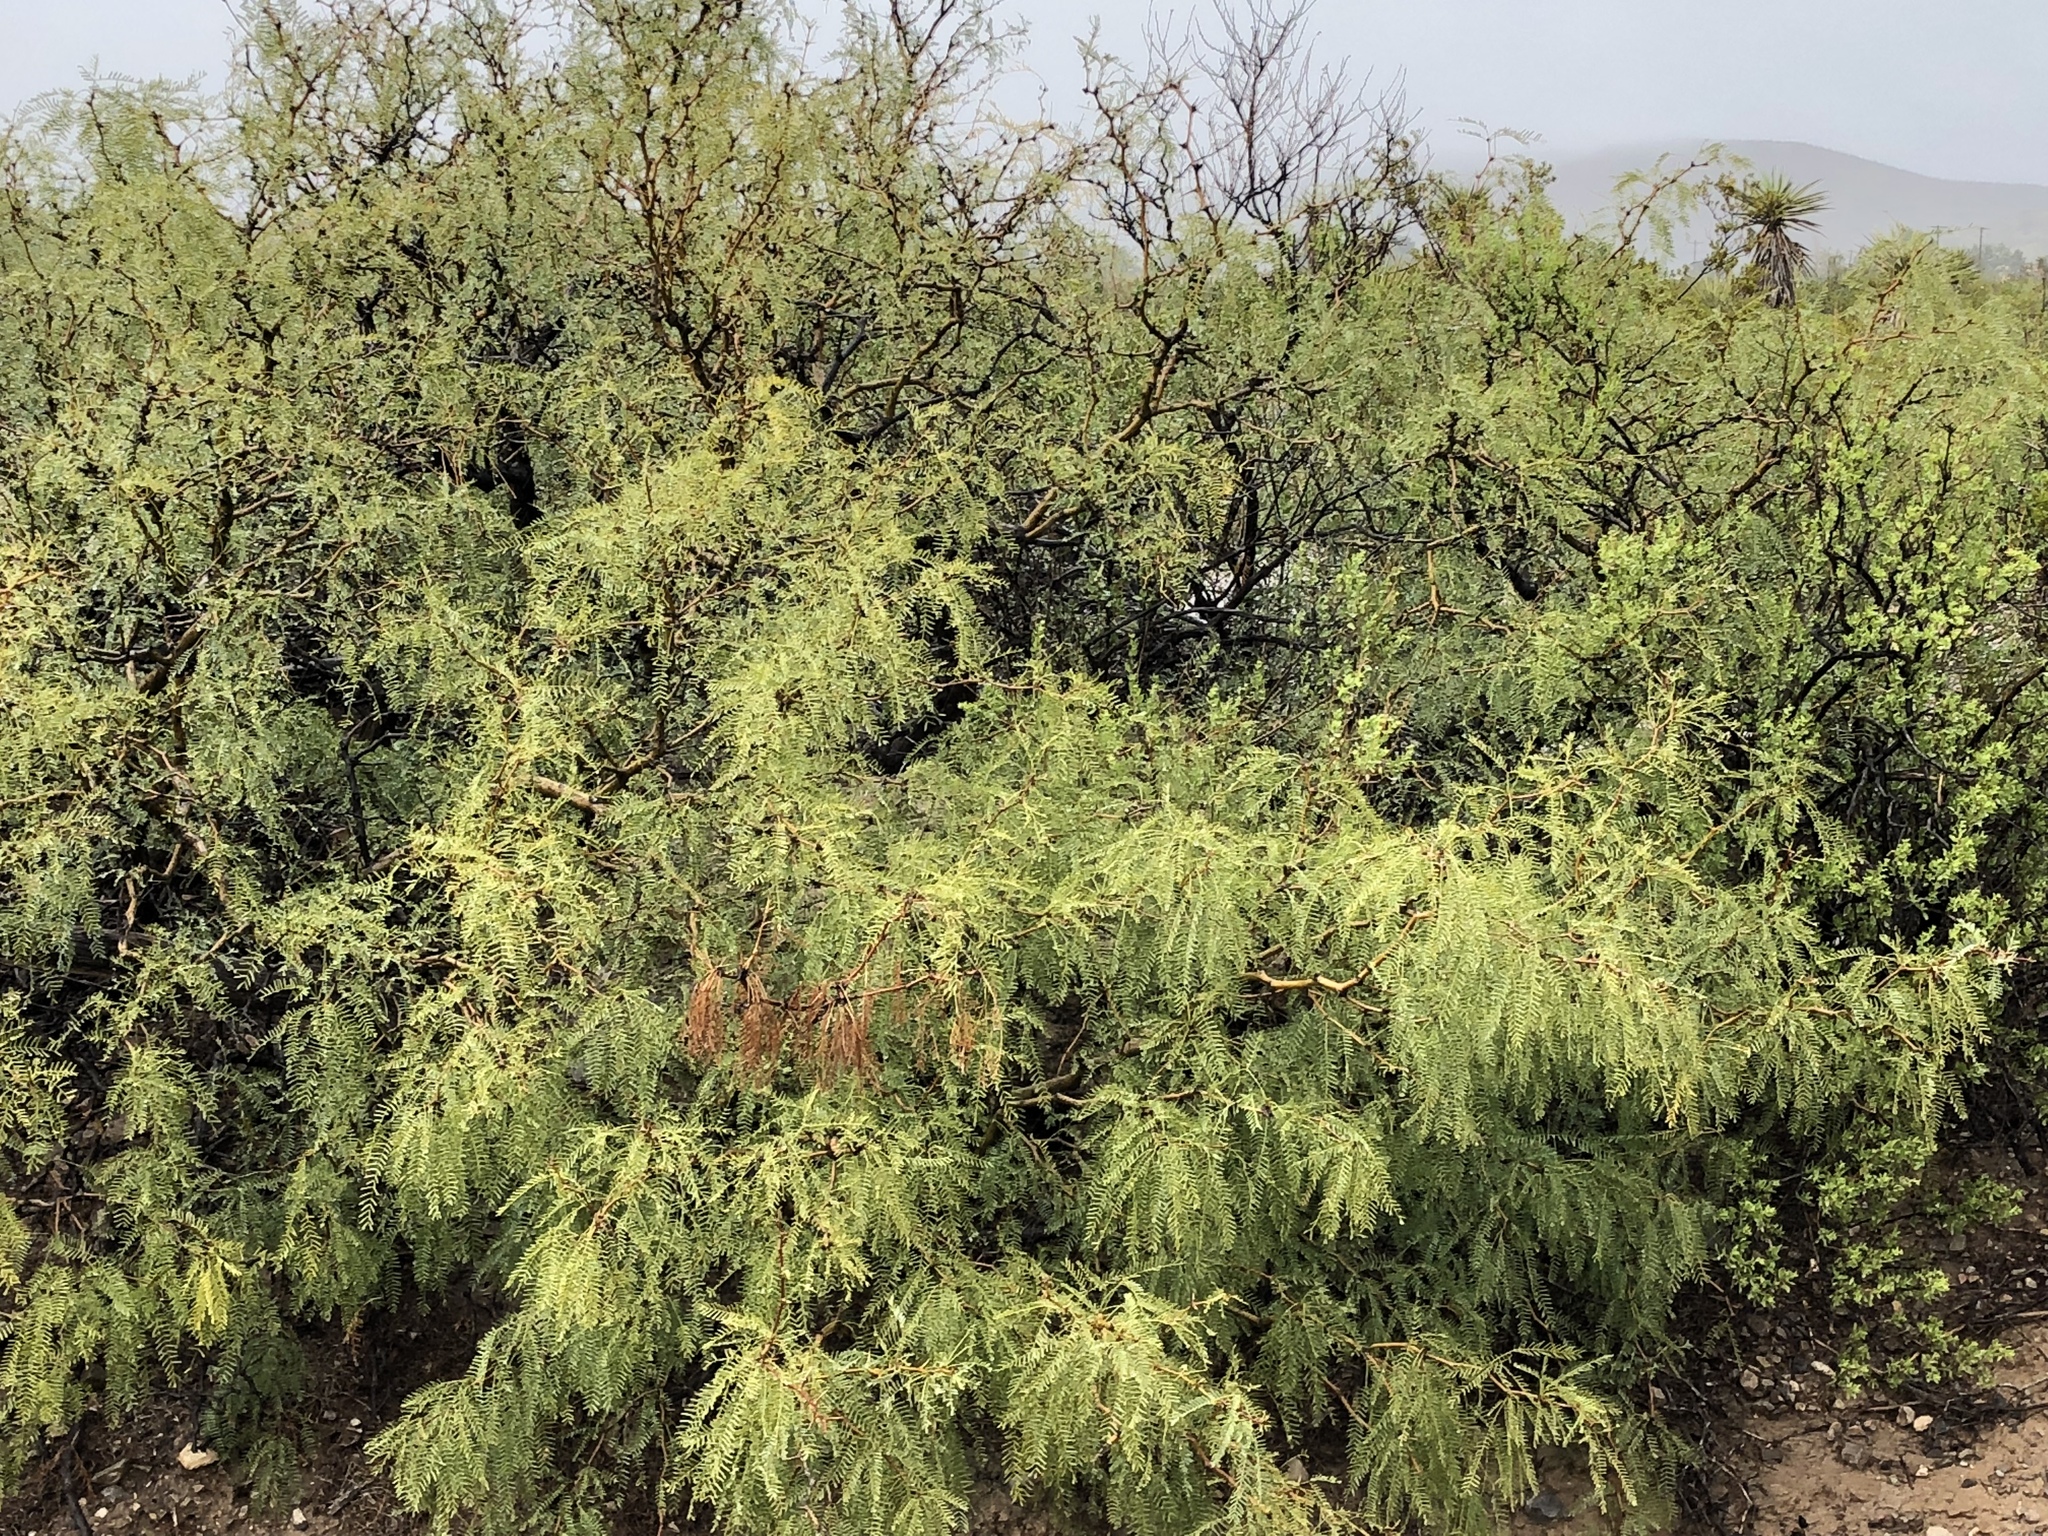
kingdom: Plantae
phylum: Tracheophyta
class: Magnoliopsida
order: Fabales
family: Fabaceae
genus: Prosopis
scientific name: Prosopis glandulosa
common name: Honey mesquite
